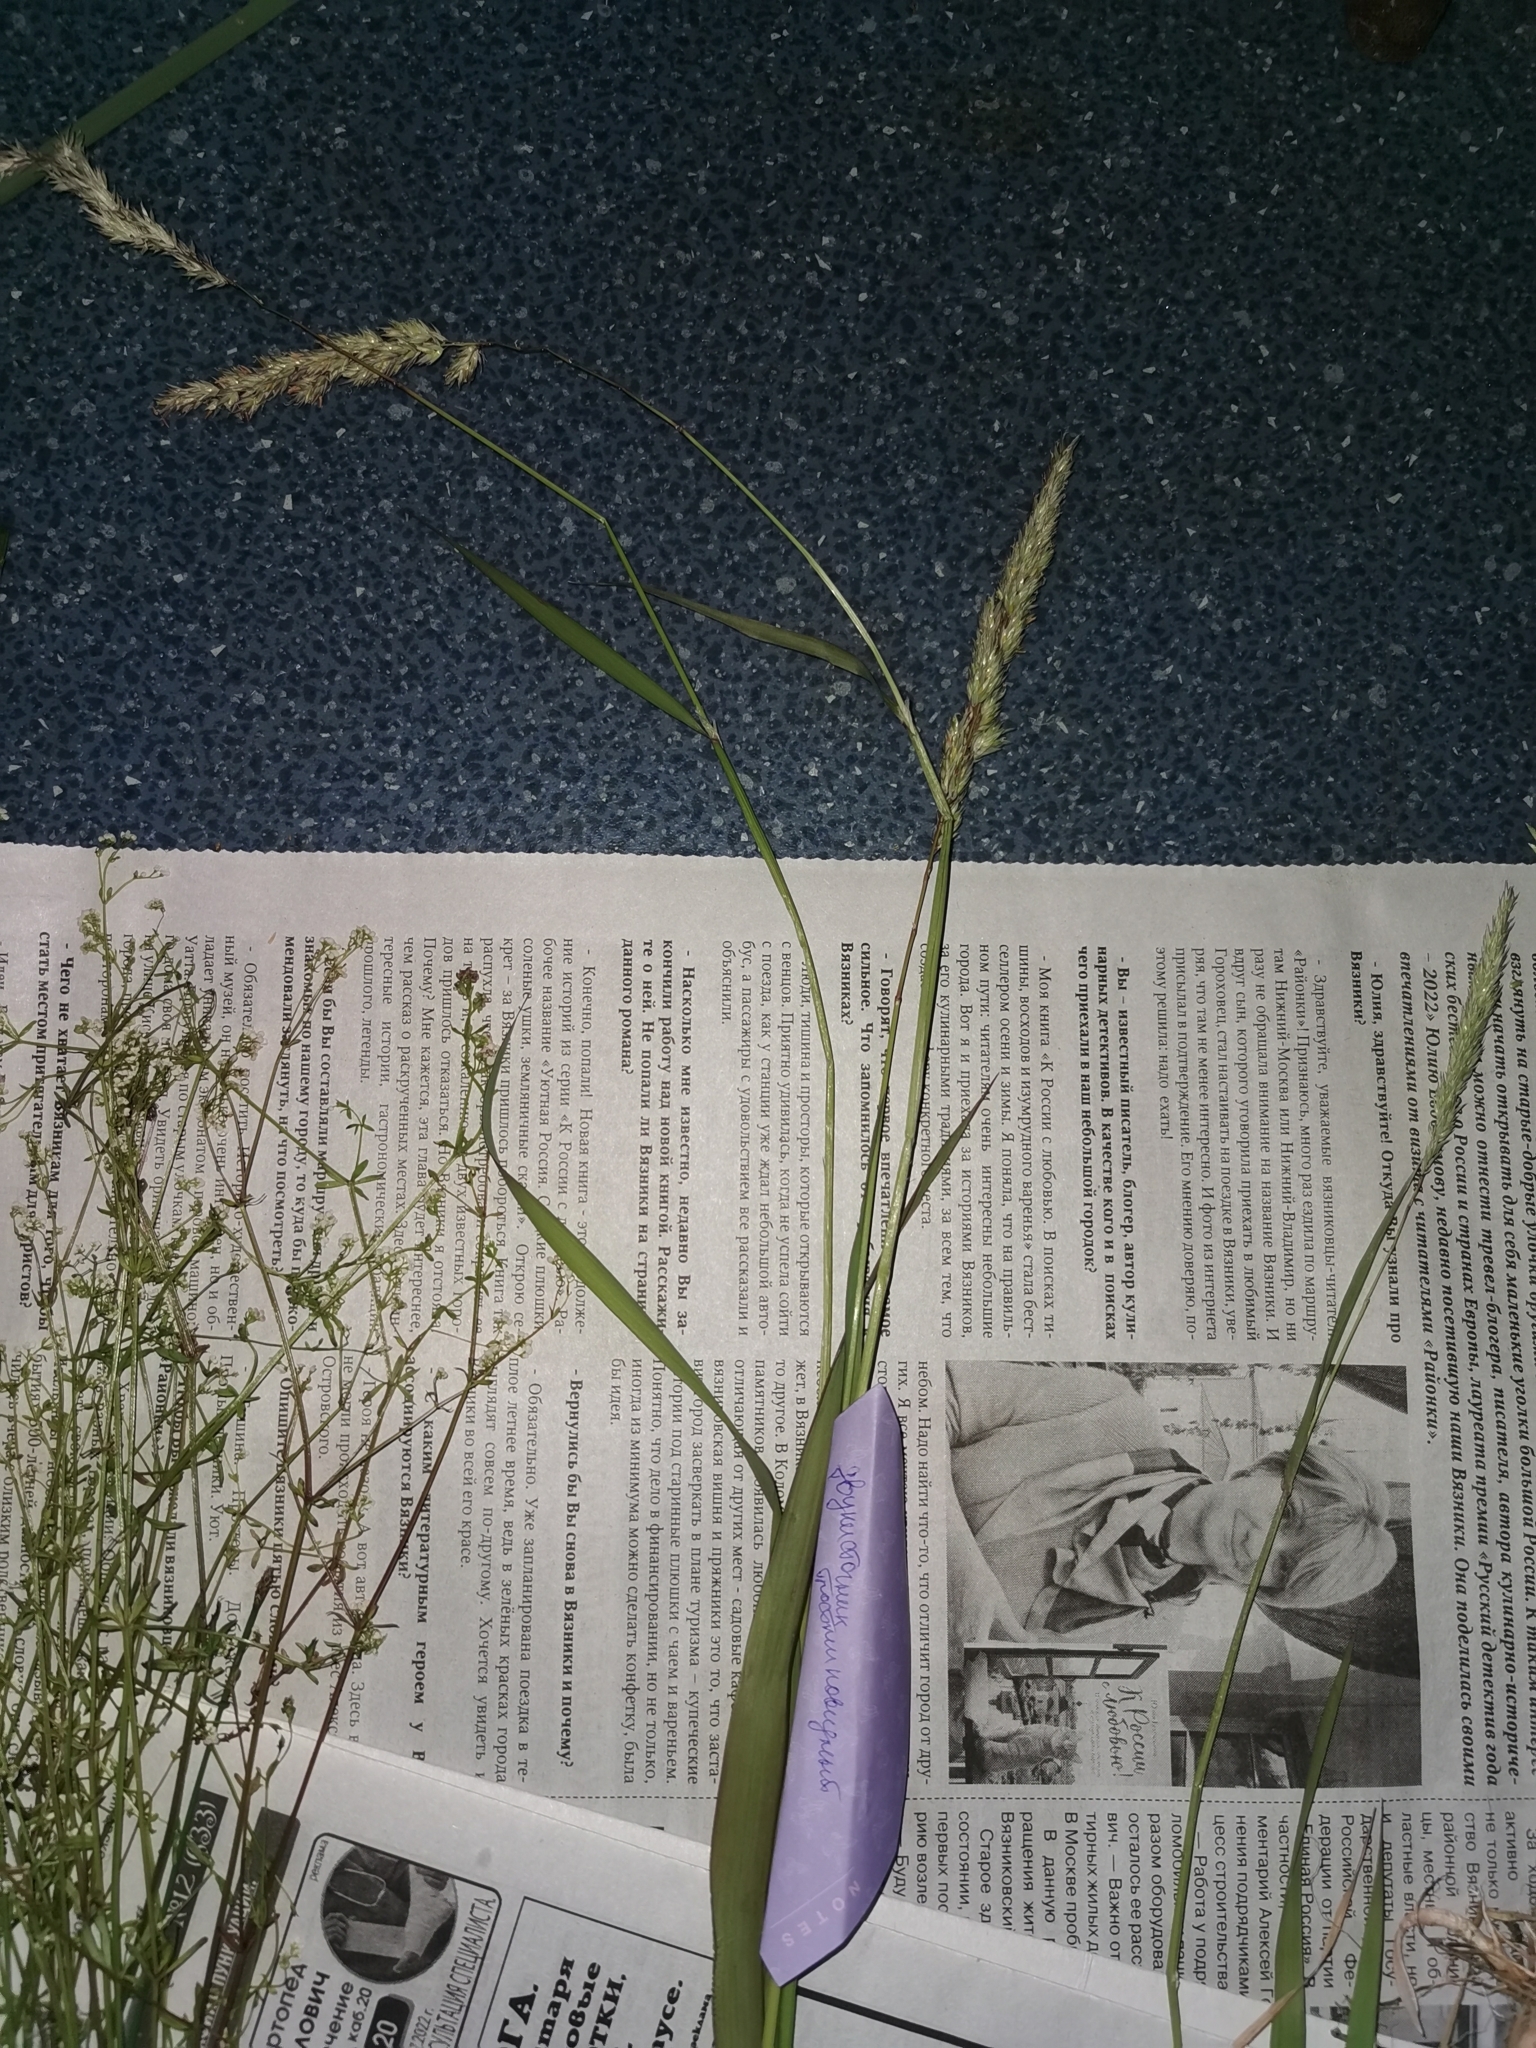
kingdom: Plantae
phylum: Tracheophyta
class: Liliopsida
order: Poales
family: Poaceae
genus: Phalaris
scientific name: Phalaris arundinacea
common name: Reed canary-grass
